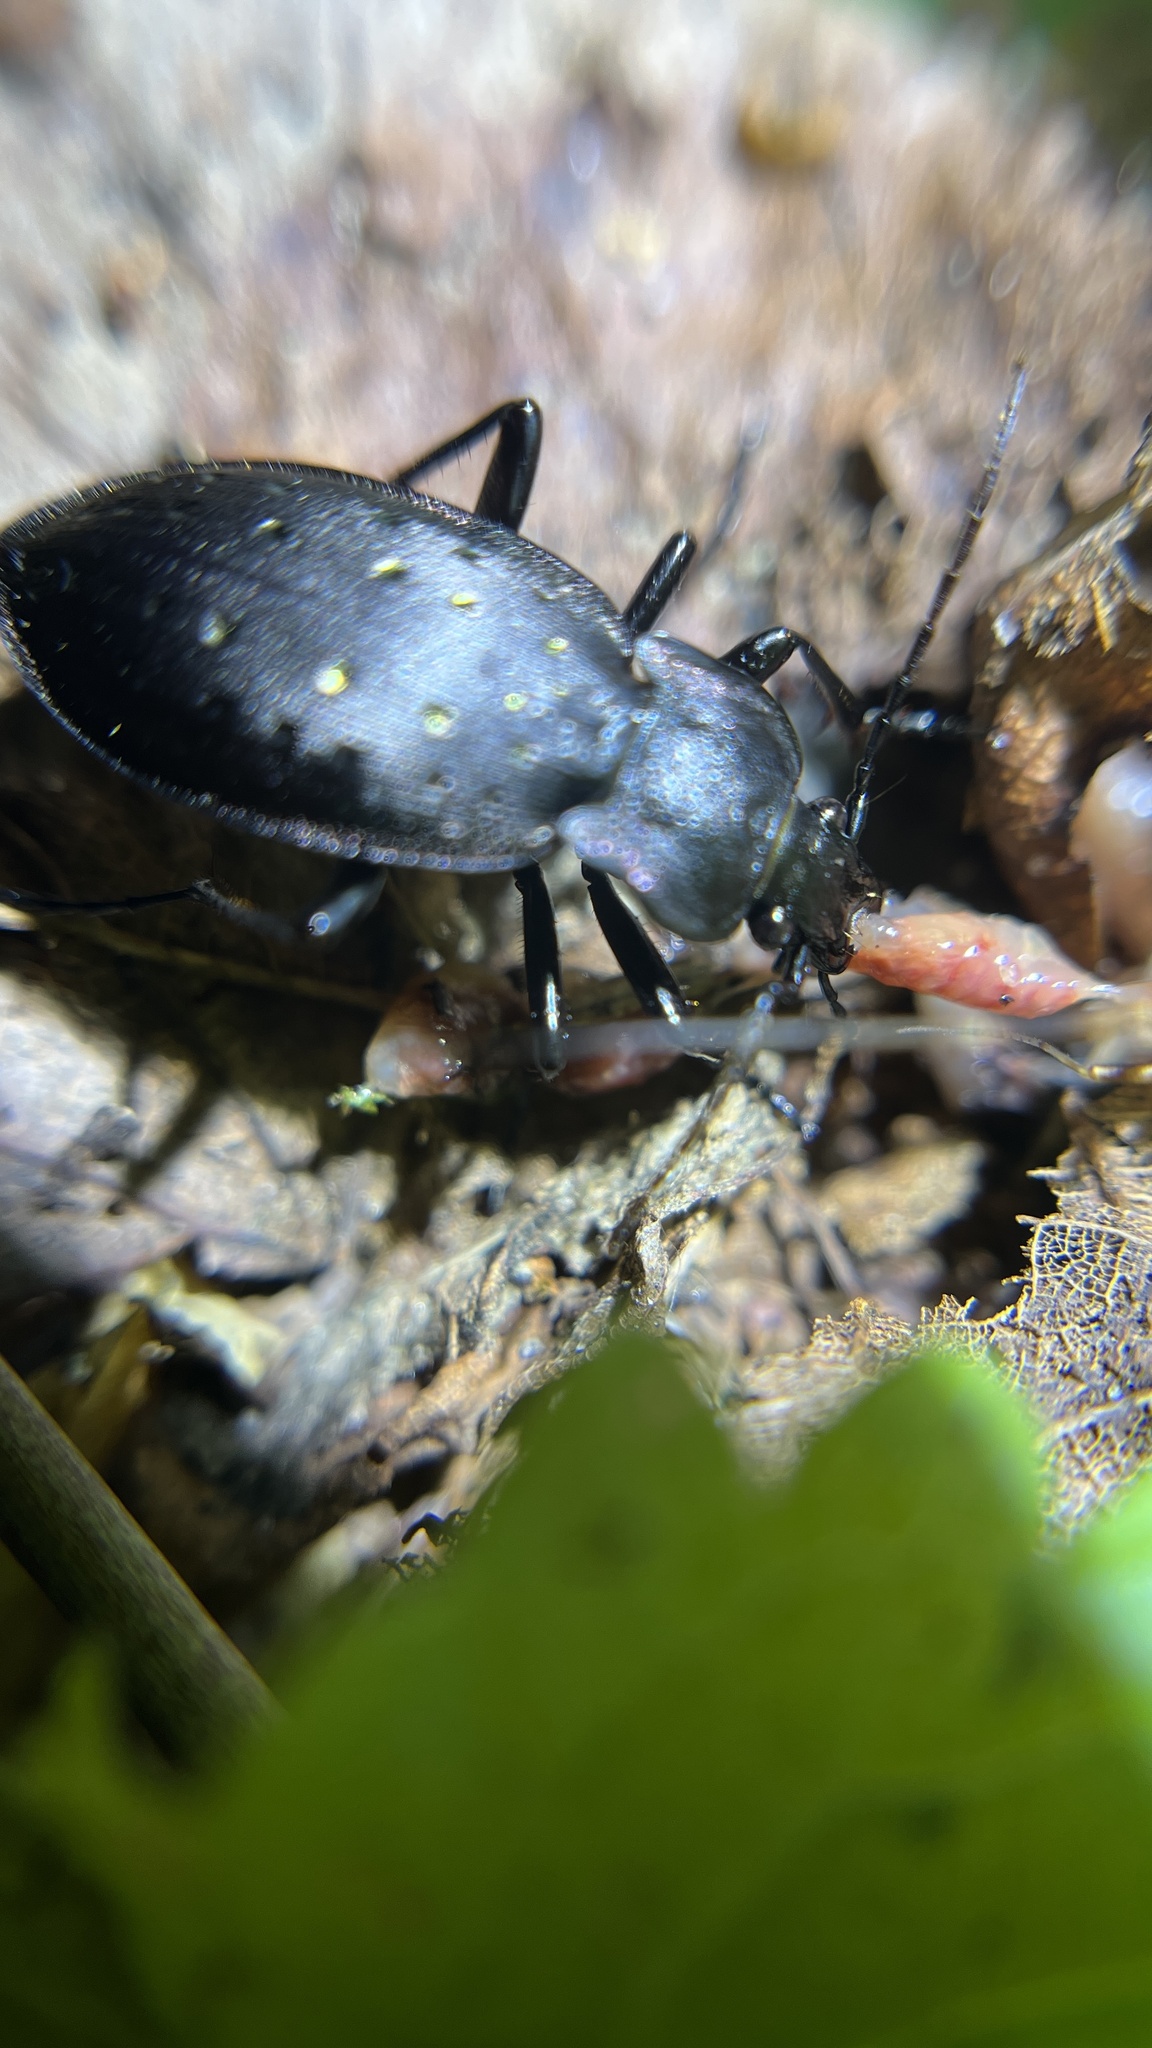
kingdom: Animalia
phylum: Arthropoda
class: Insecta
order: Coleoptera
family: Carabidae
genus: Carabus
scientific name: Carabus hortensis
